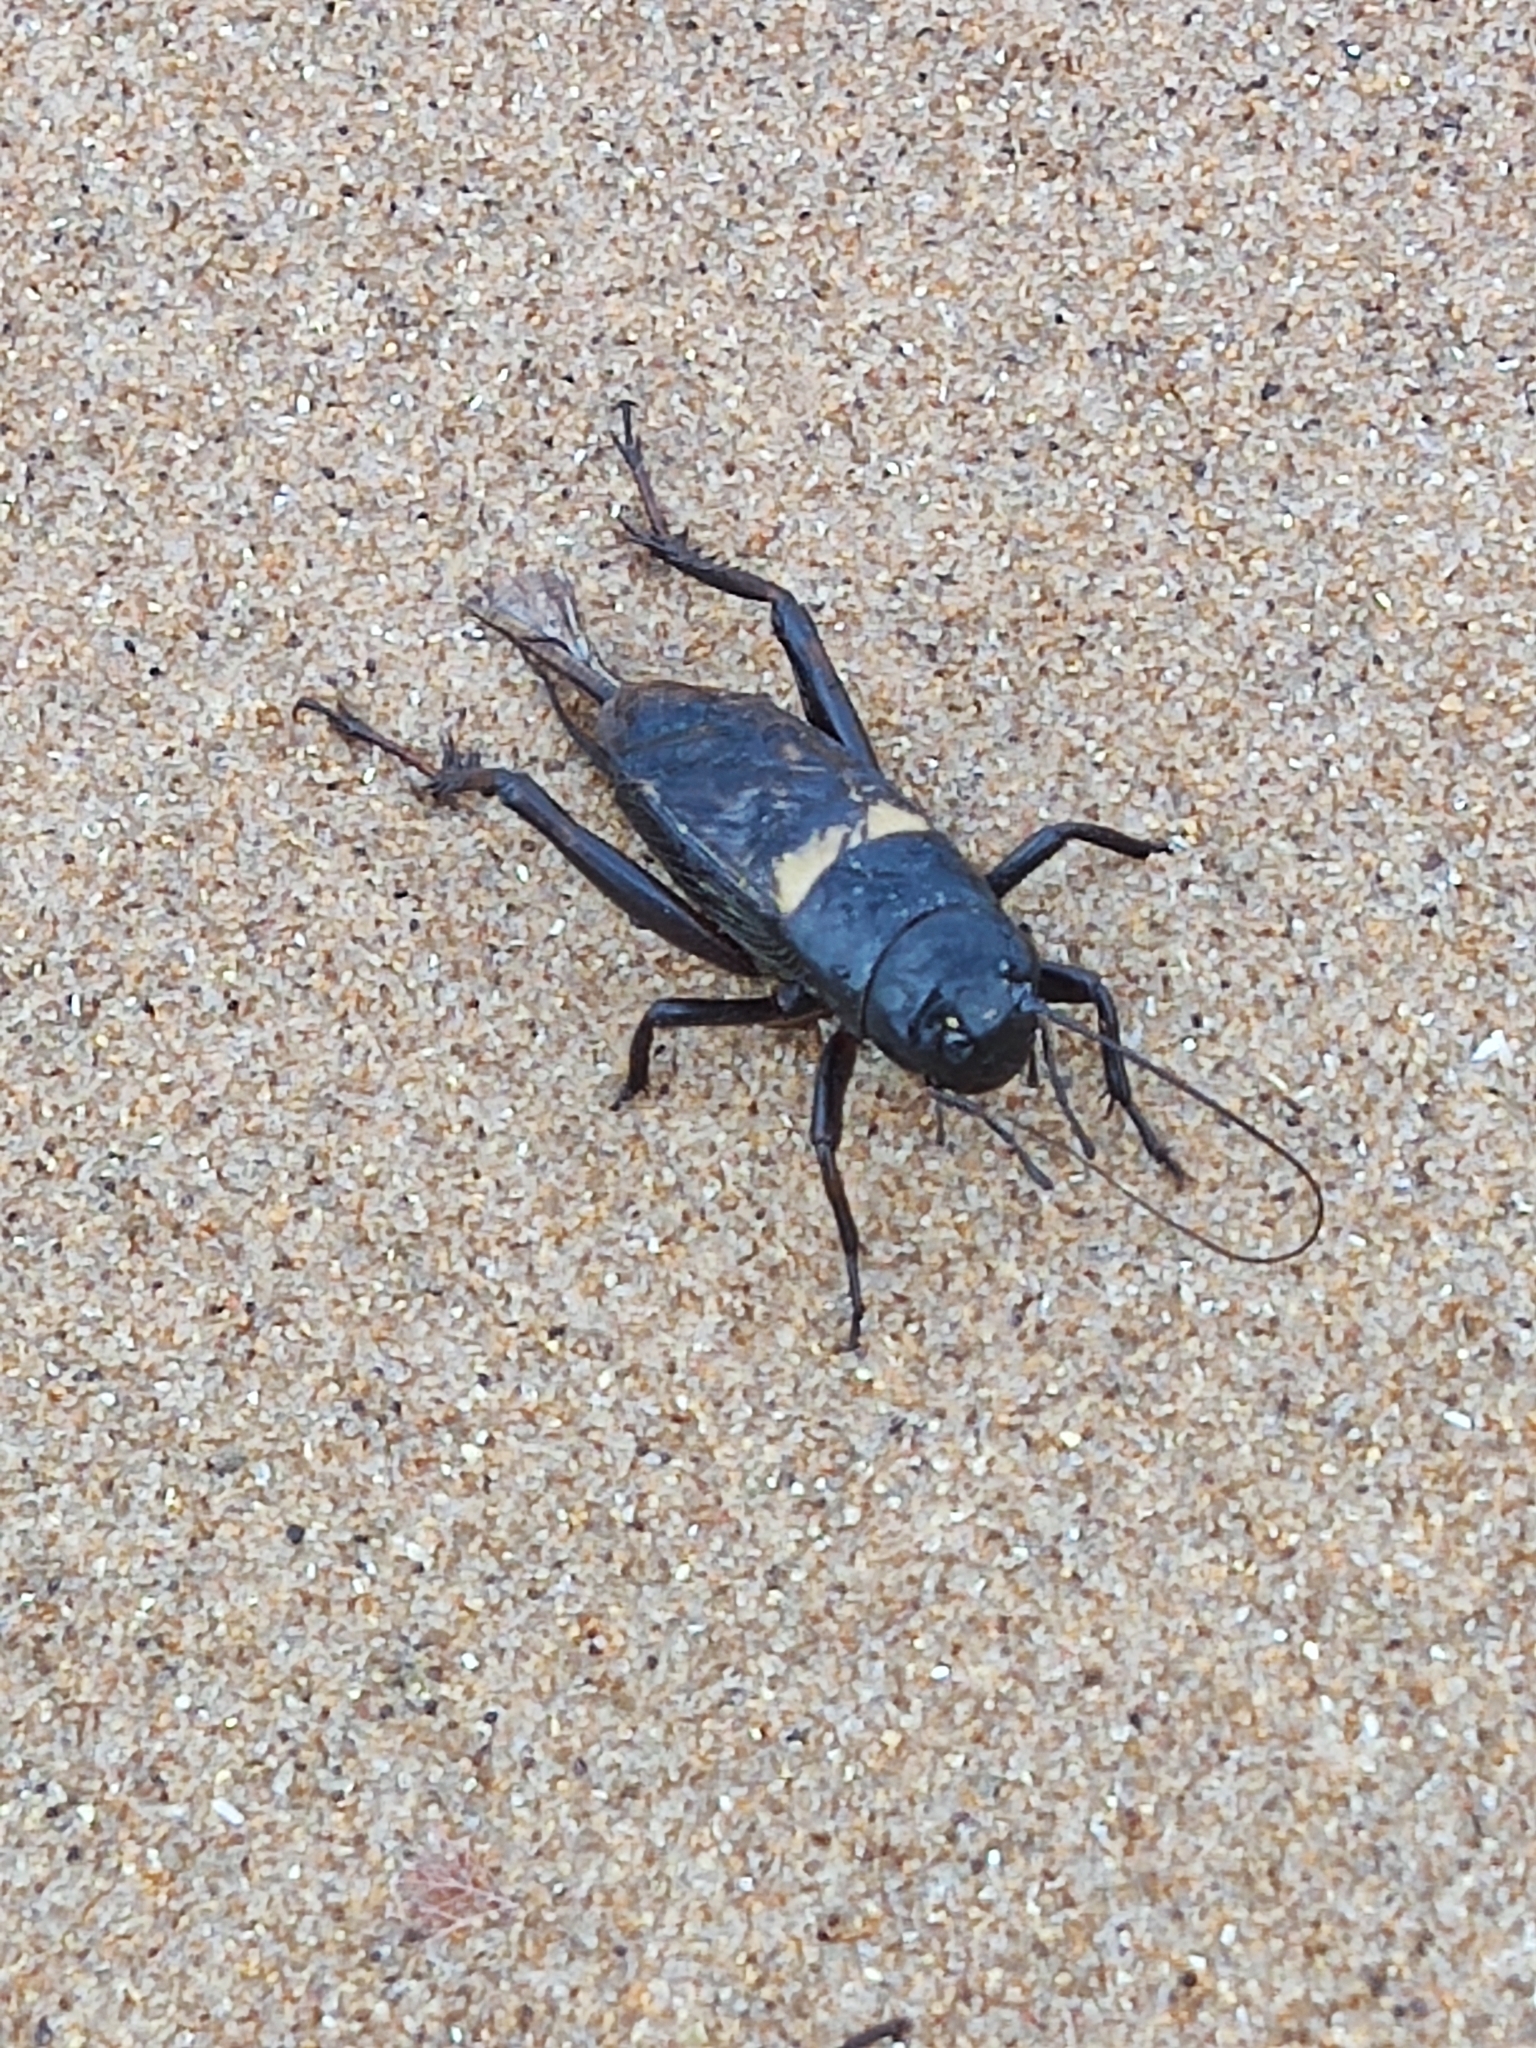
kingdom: Animalia
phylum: Arthropoda
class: Insecta
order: Orthoptera
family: Gryllidae
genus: Gryllus
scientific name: Gryllus bimaculatus
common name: Two-spotted cricket
